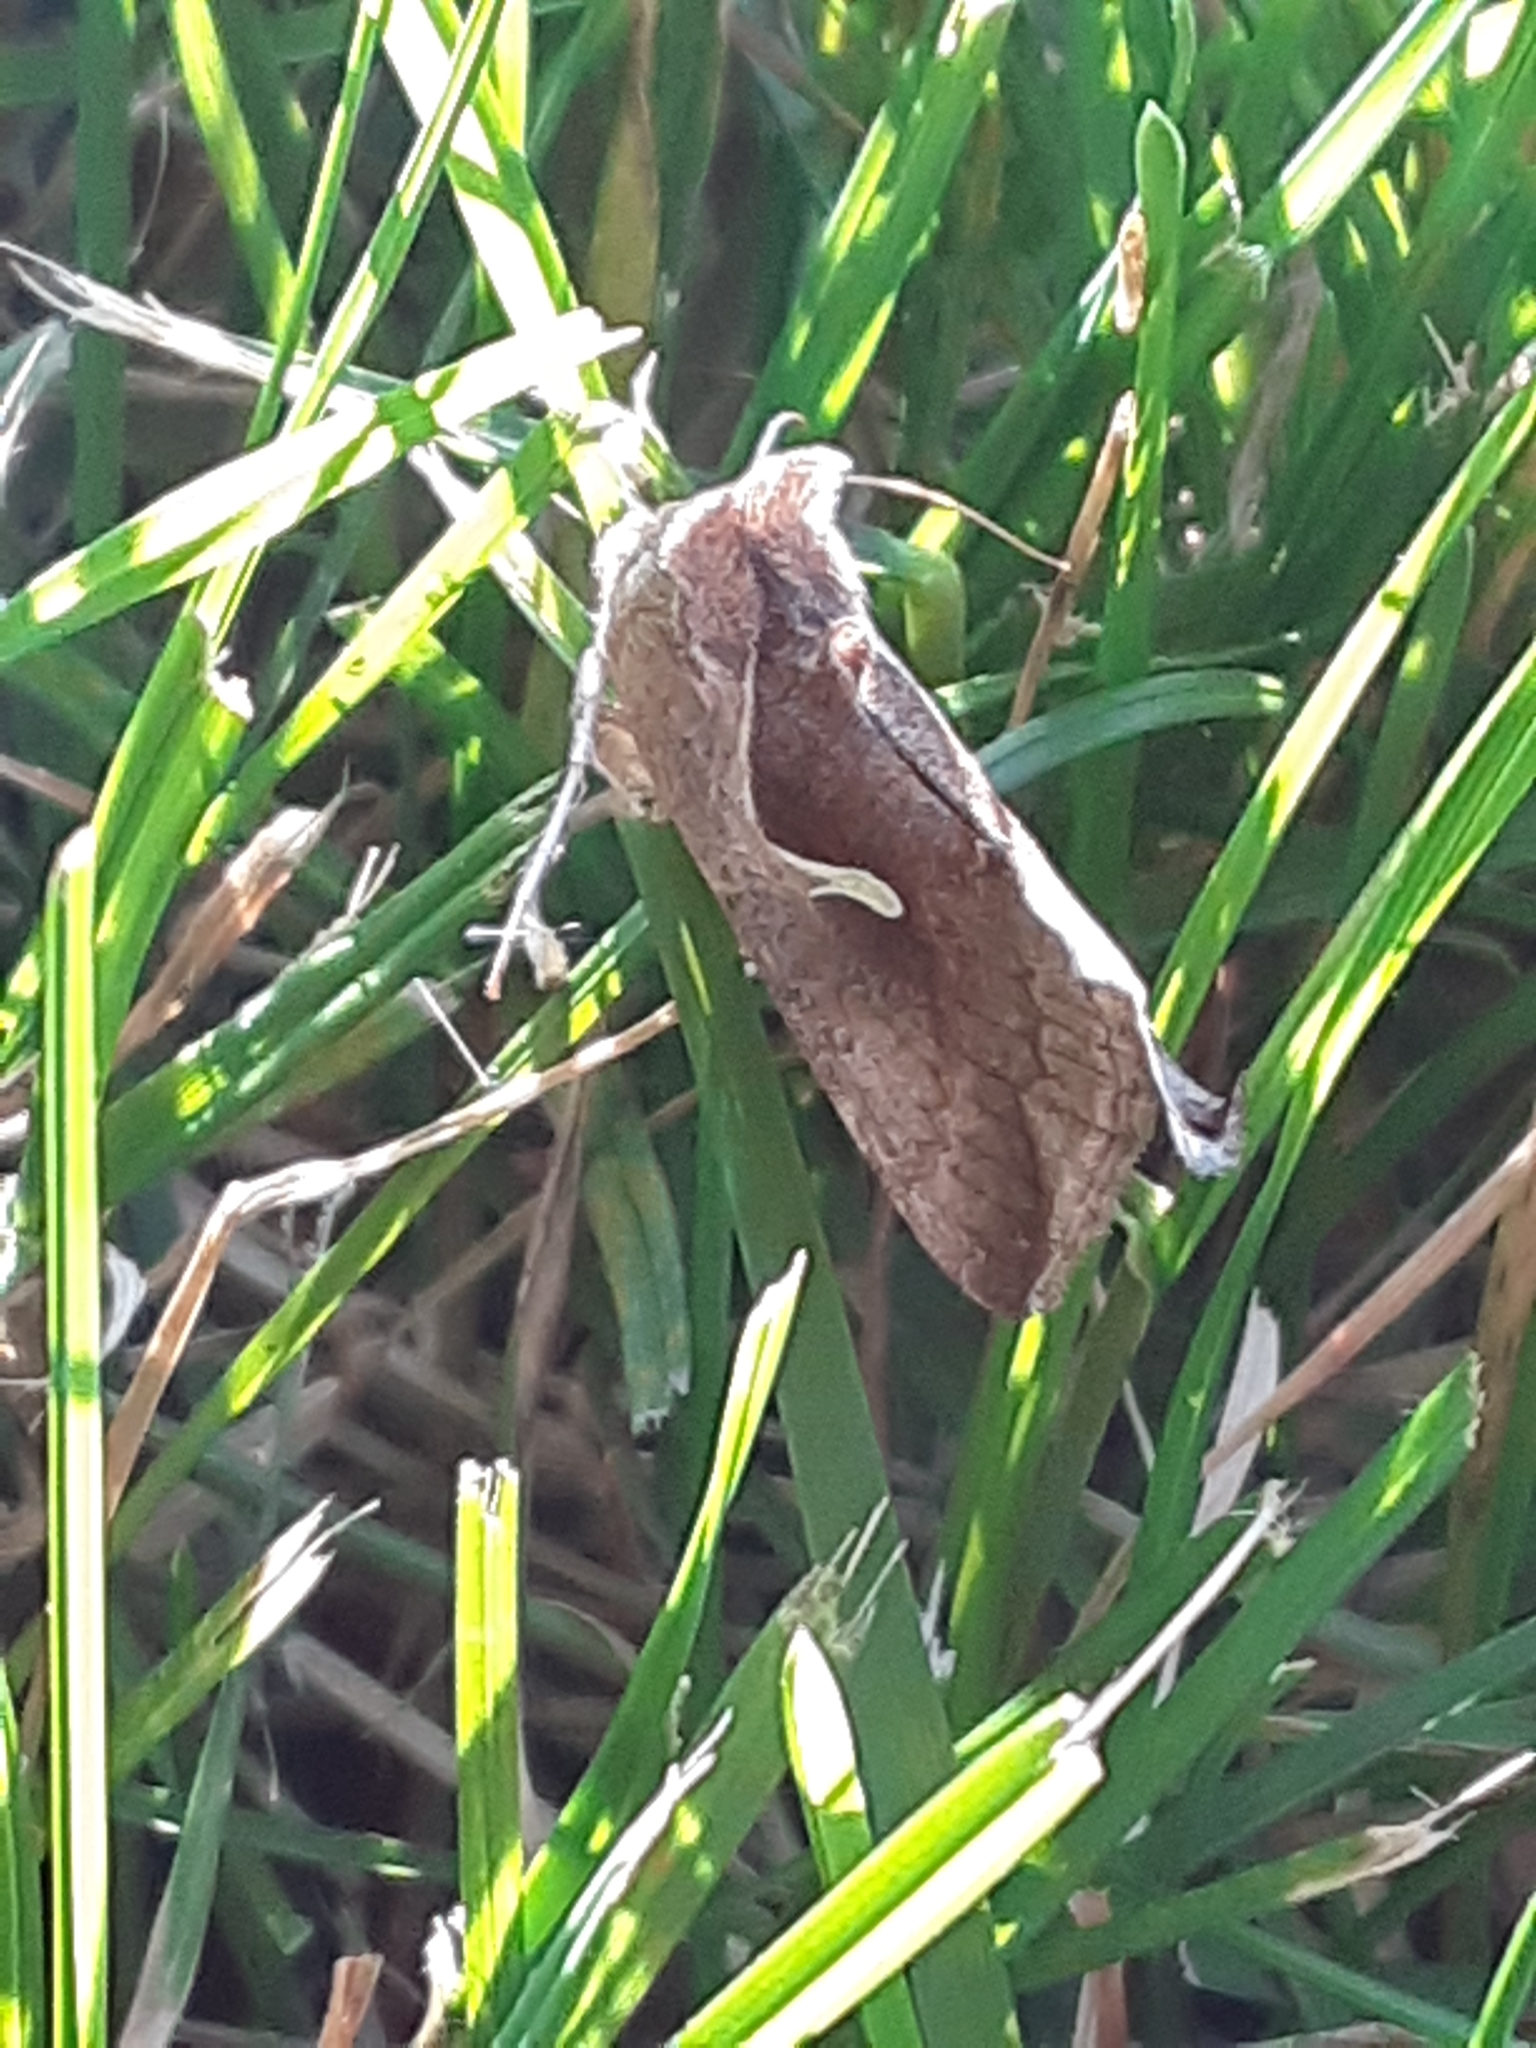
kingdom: Animalia
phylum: Arthropoda
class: Insecta
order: Lepidoptera
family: Noctuidae
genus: Anagrapha
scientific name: Anagrapha falcifera
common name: Celery looper
